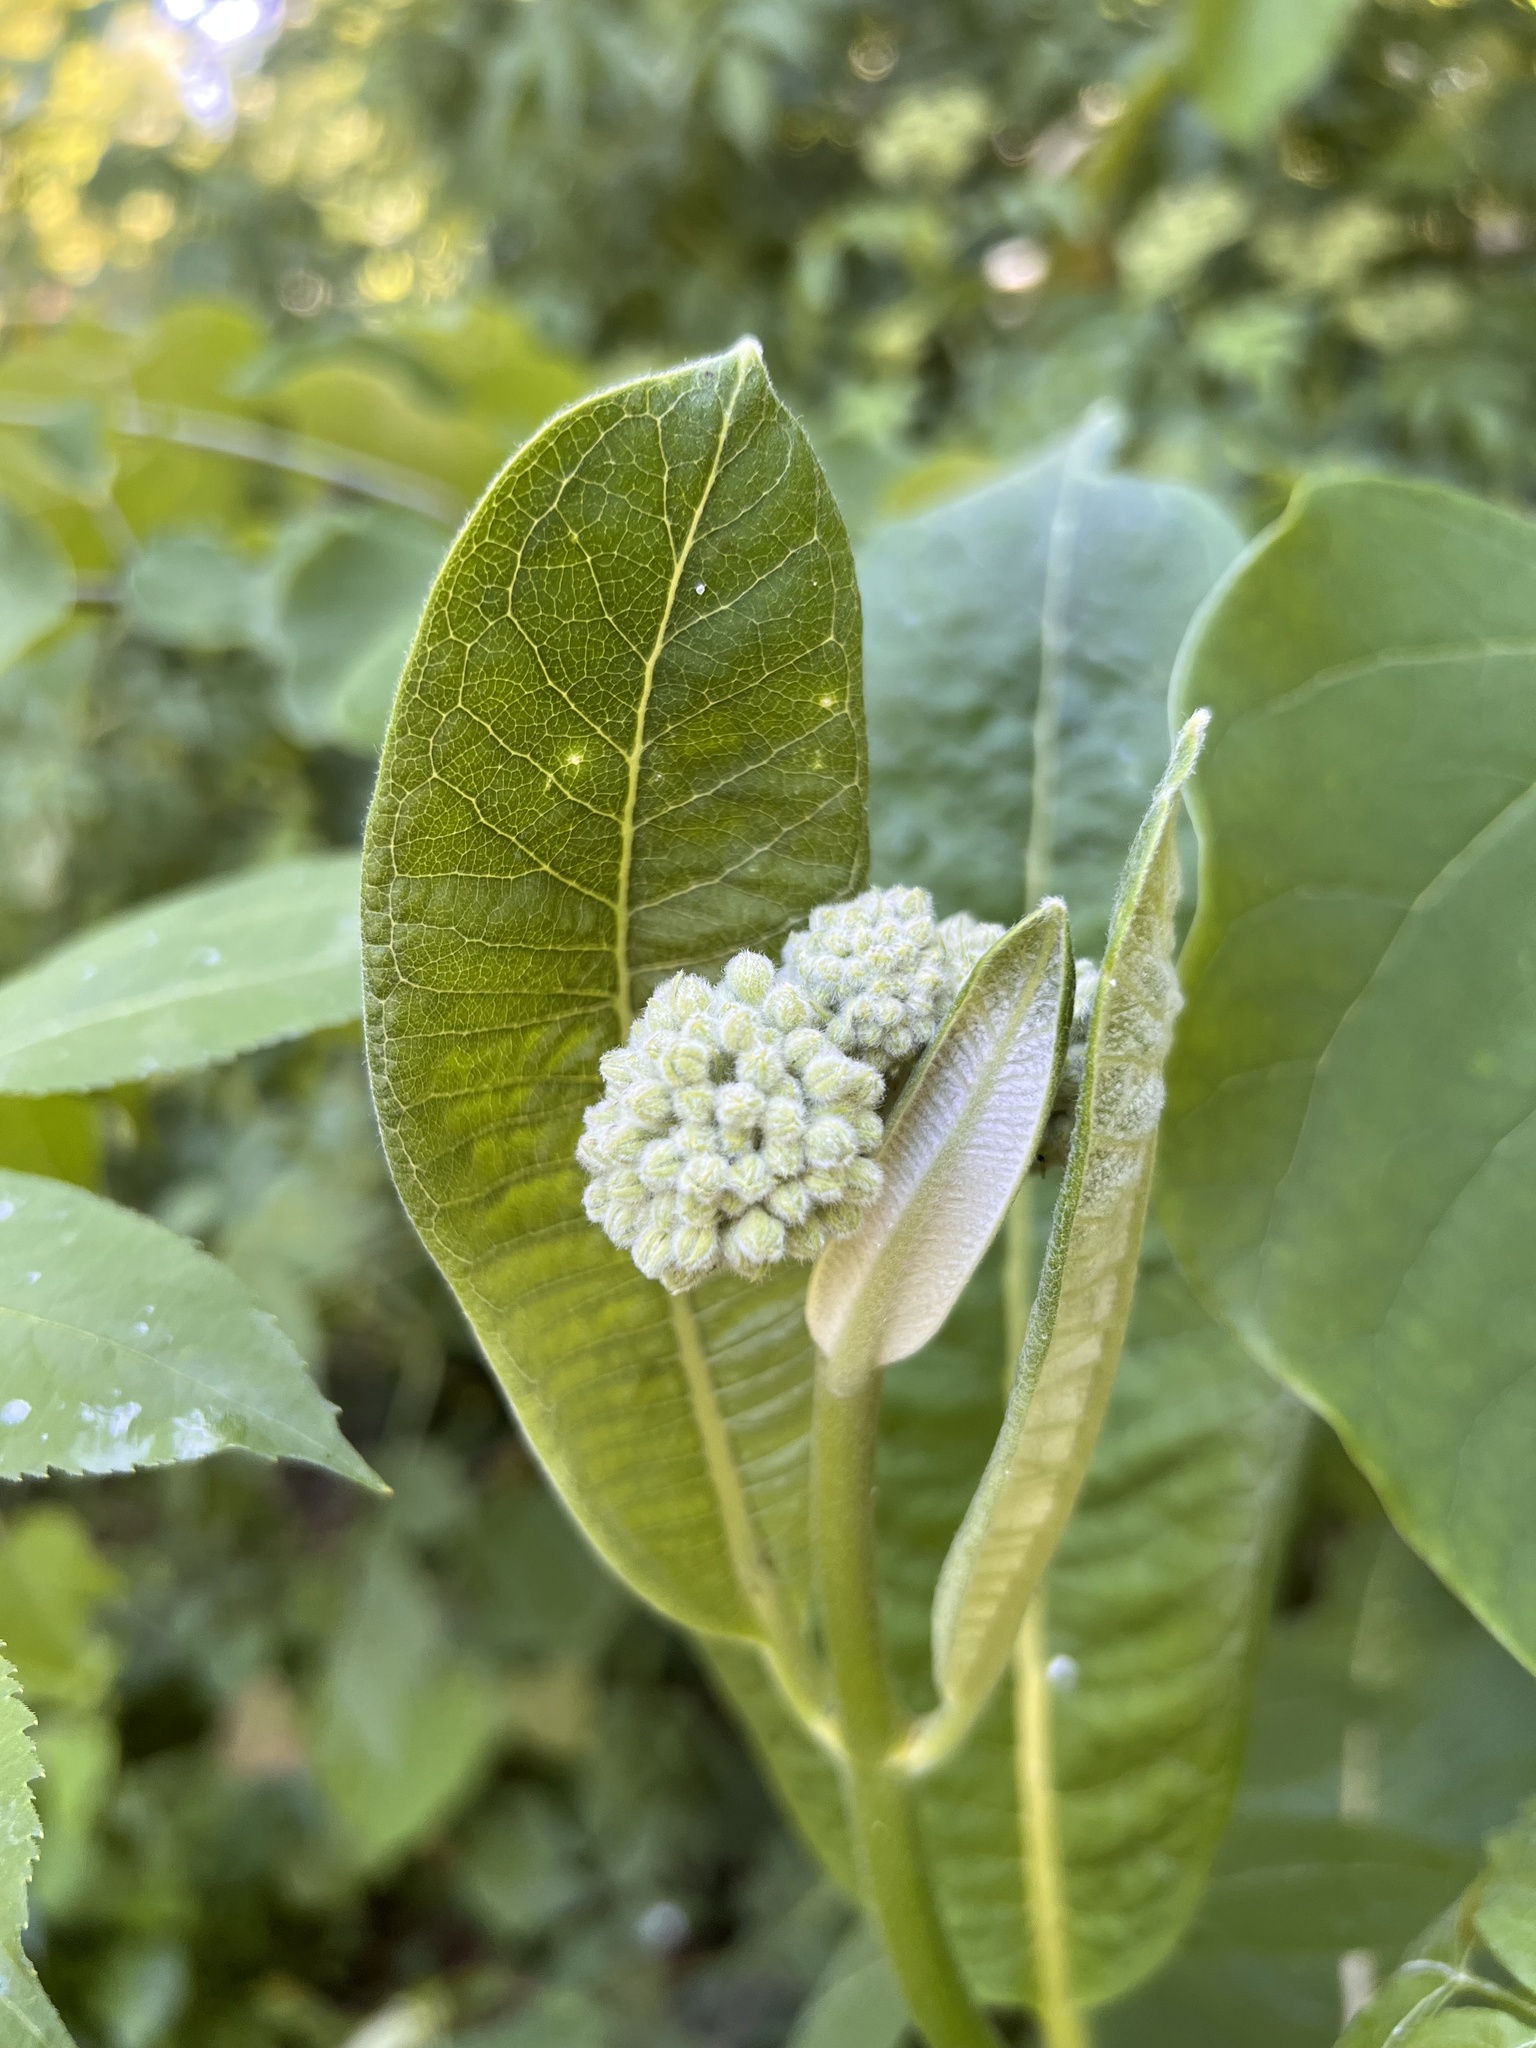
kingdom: Plantae
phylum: Tracheophyta
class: Magnoliopsida
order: Gentianales
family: Apocynaceae
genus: Asclepias
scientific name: Asclepias syriaca
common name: Common milkweed
